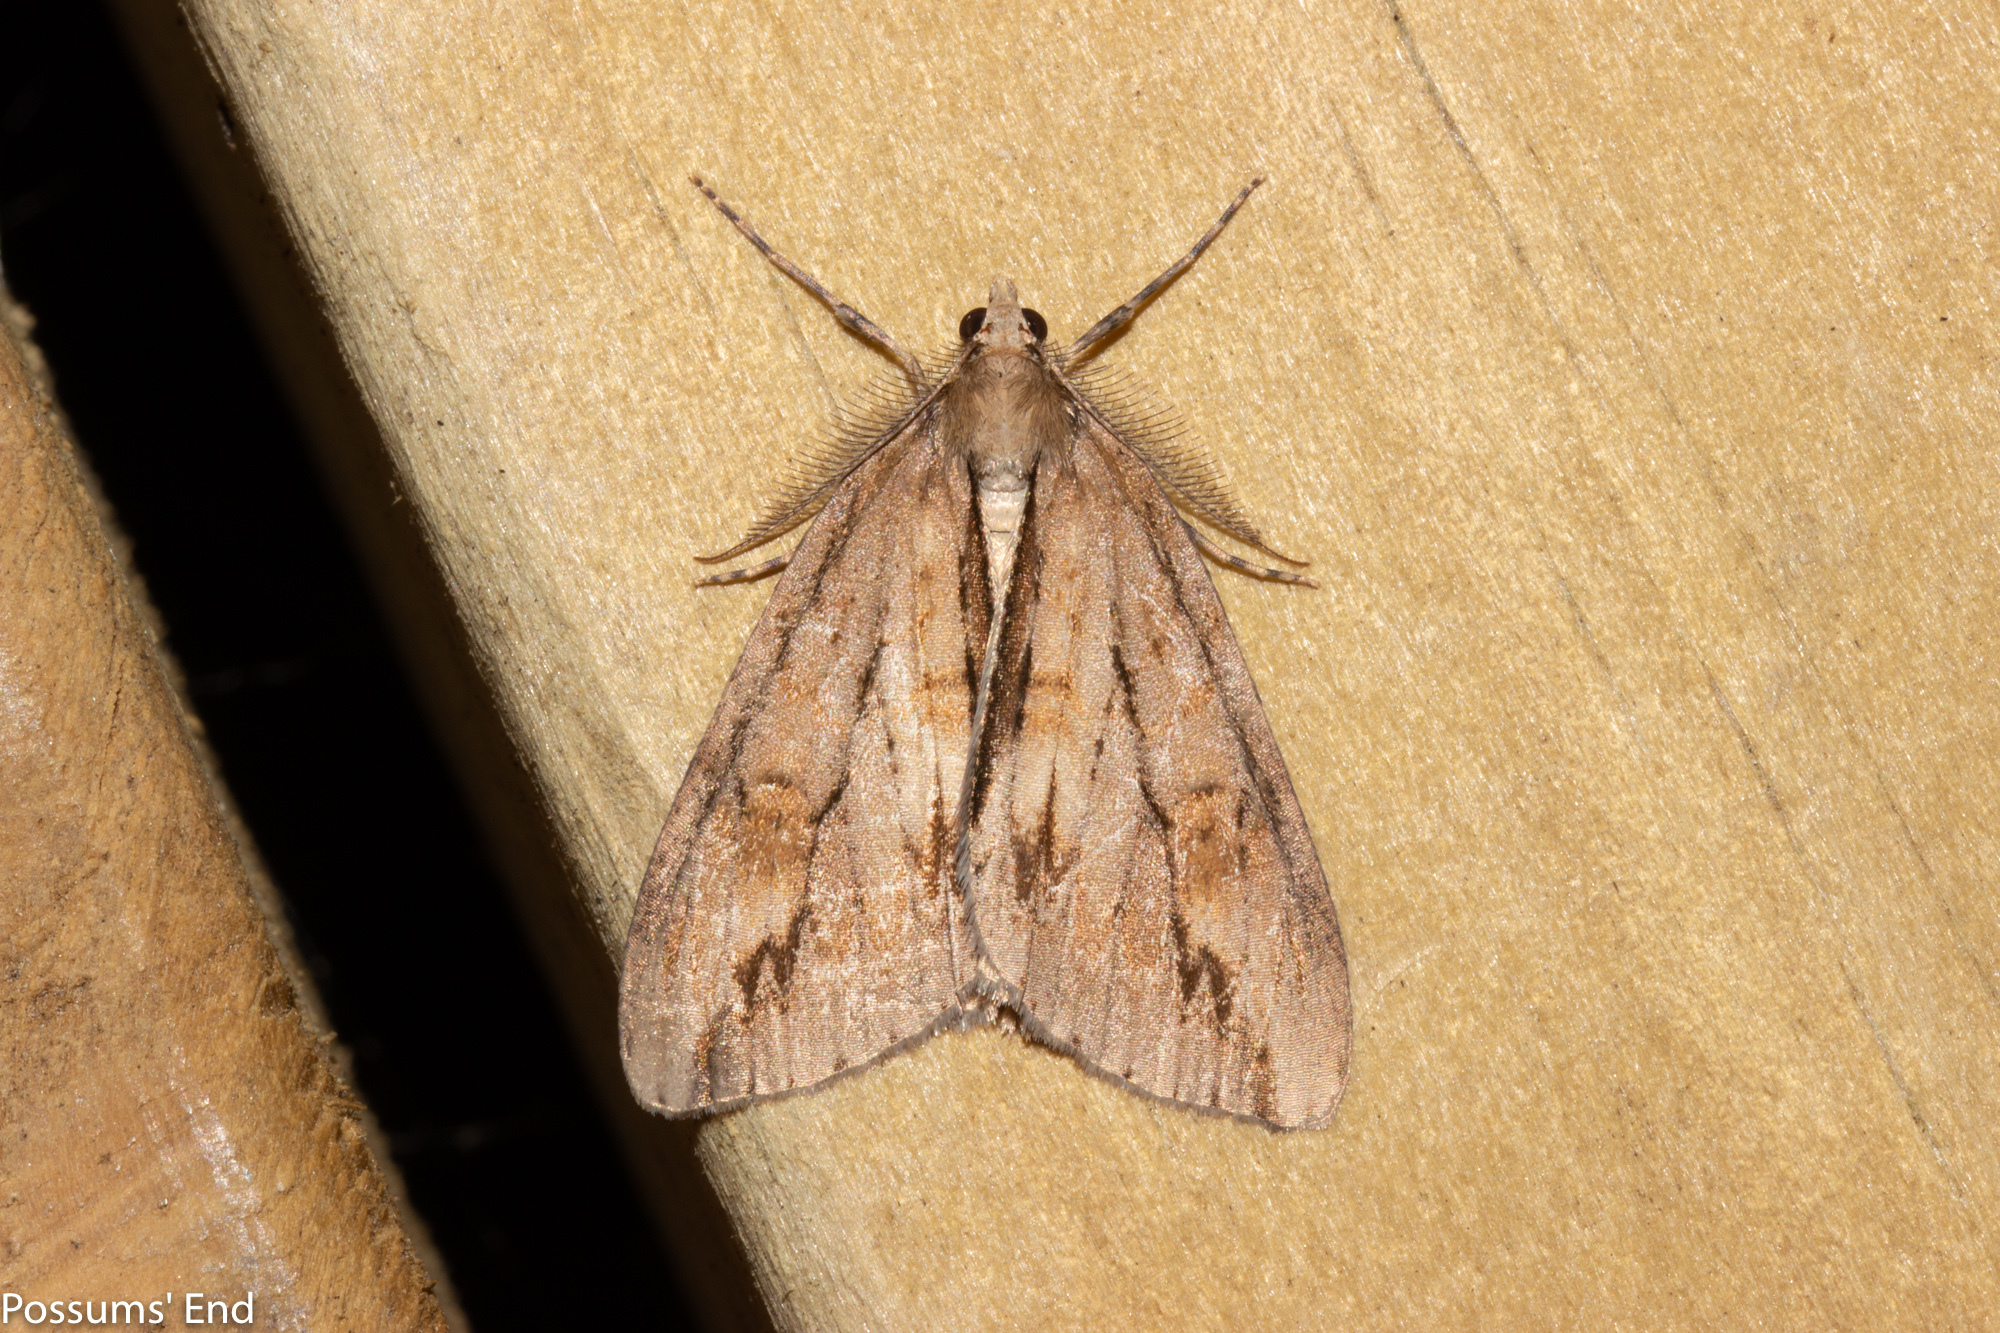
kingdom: Animalia
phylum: Arthropoda
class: Insecta
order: Lepidoptera
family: Geometridae
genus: Pseudocoremia
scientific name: Pseudocoremia lupinata
